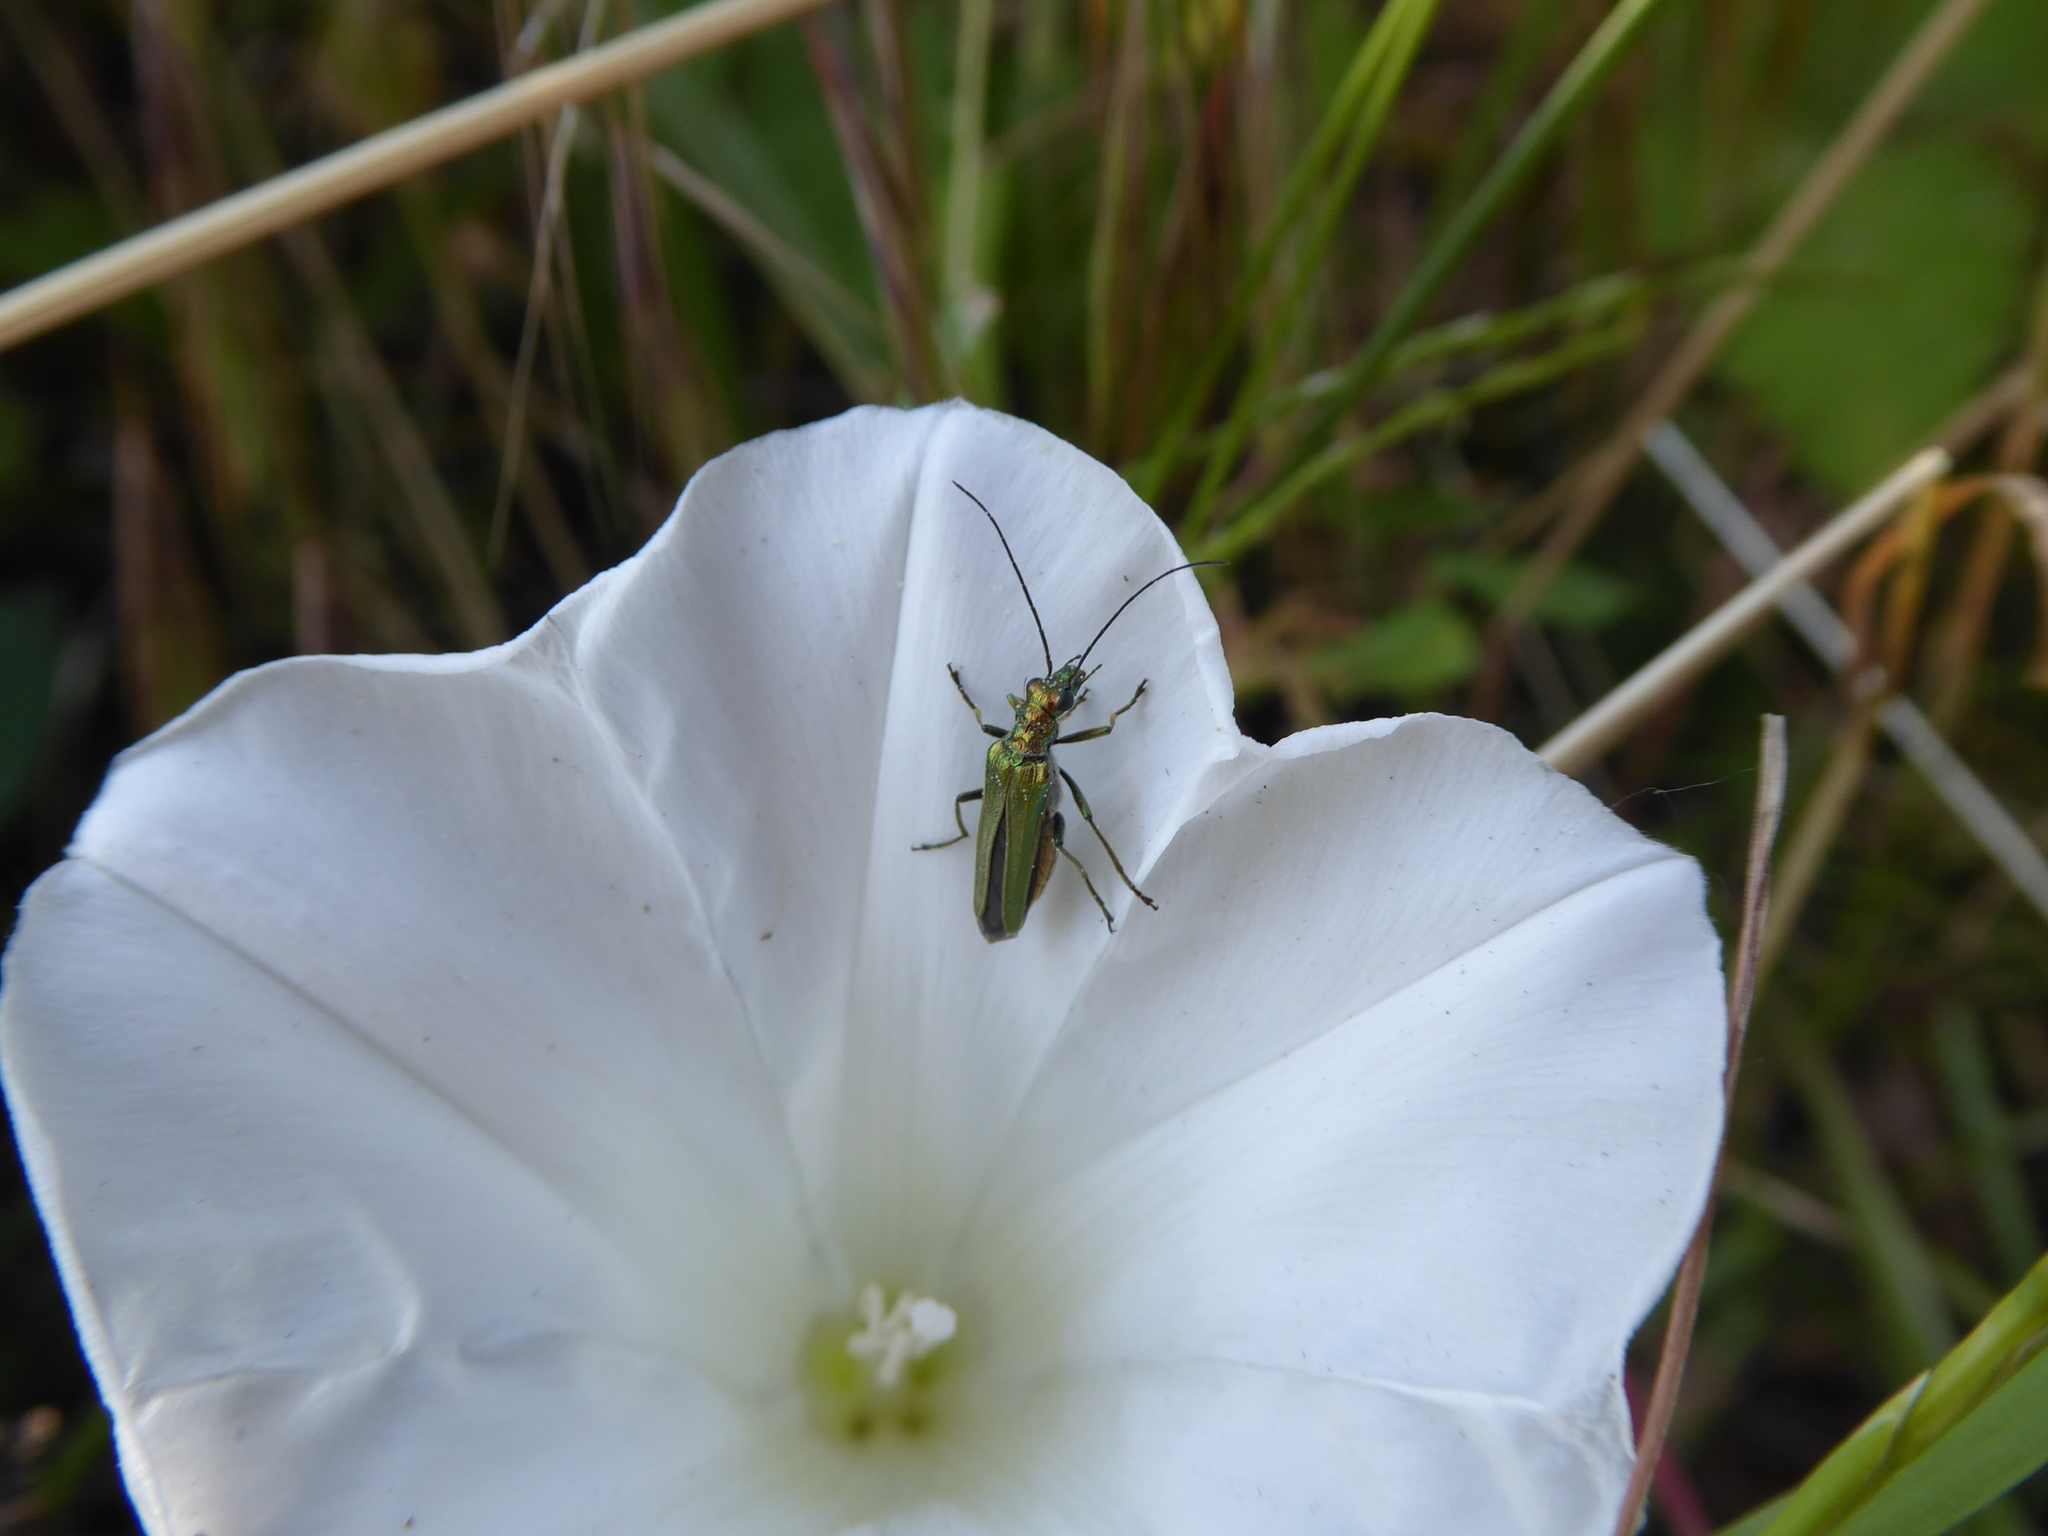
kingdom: Animalia
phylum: Arthropoda
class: Insecta
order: Coleoptera
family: Oedemeridae
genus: Oedemera
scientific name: Oedemera nobilis
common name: Swollen-thighed beetle
